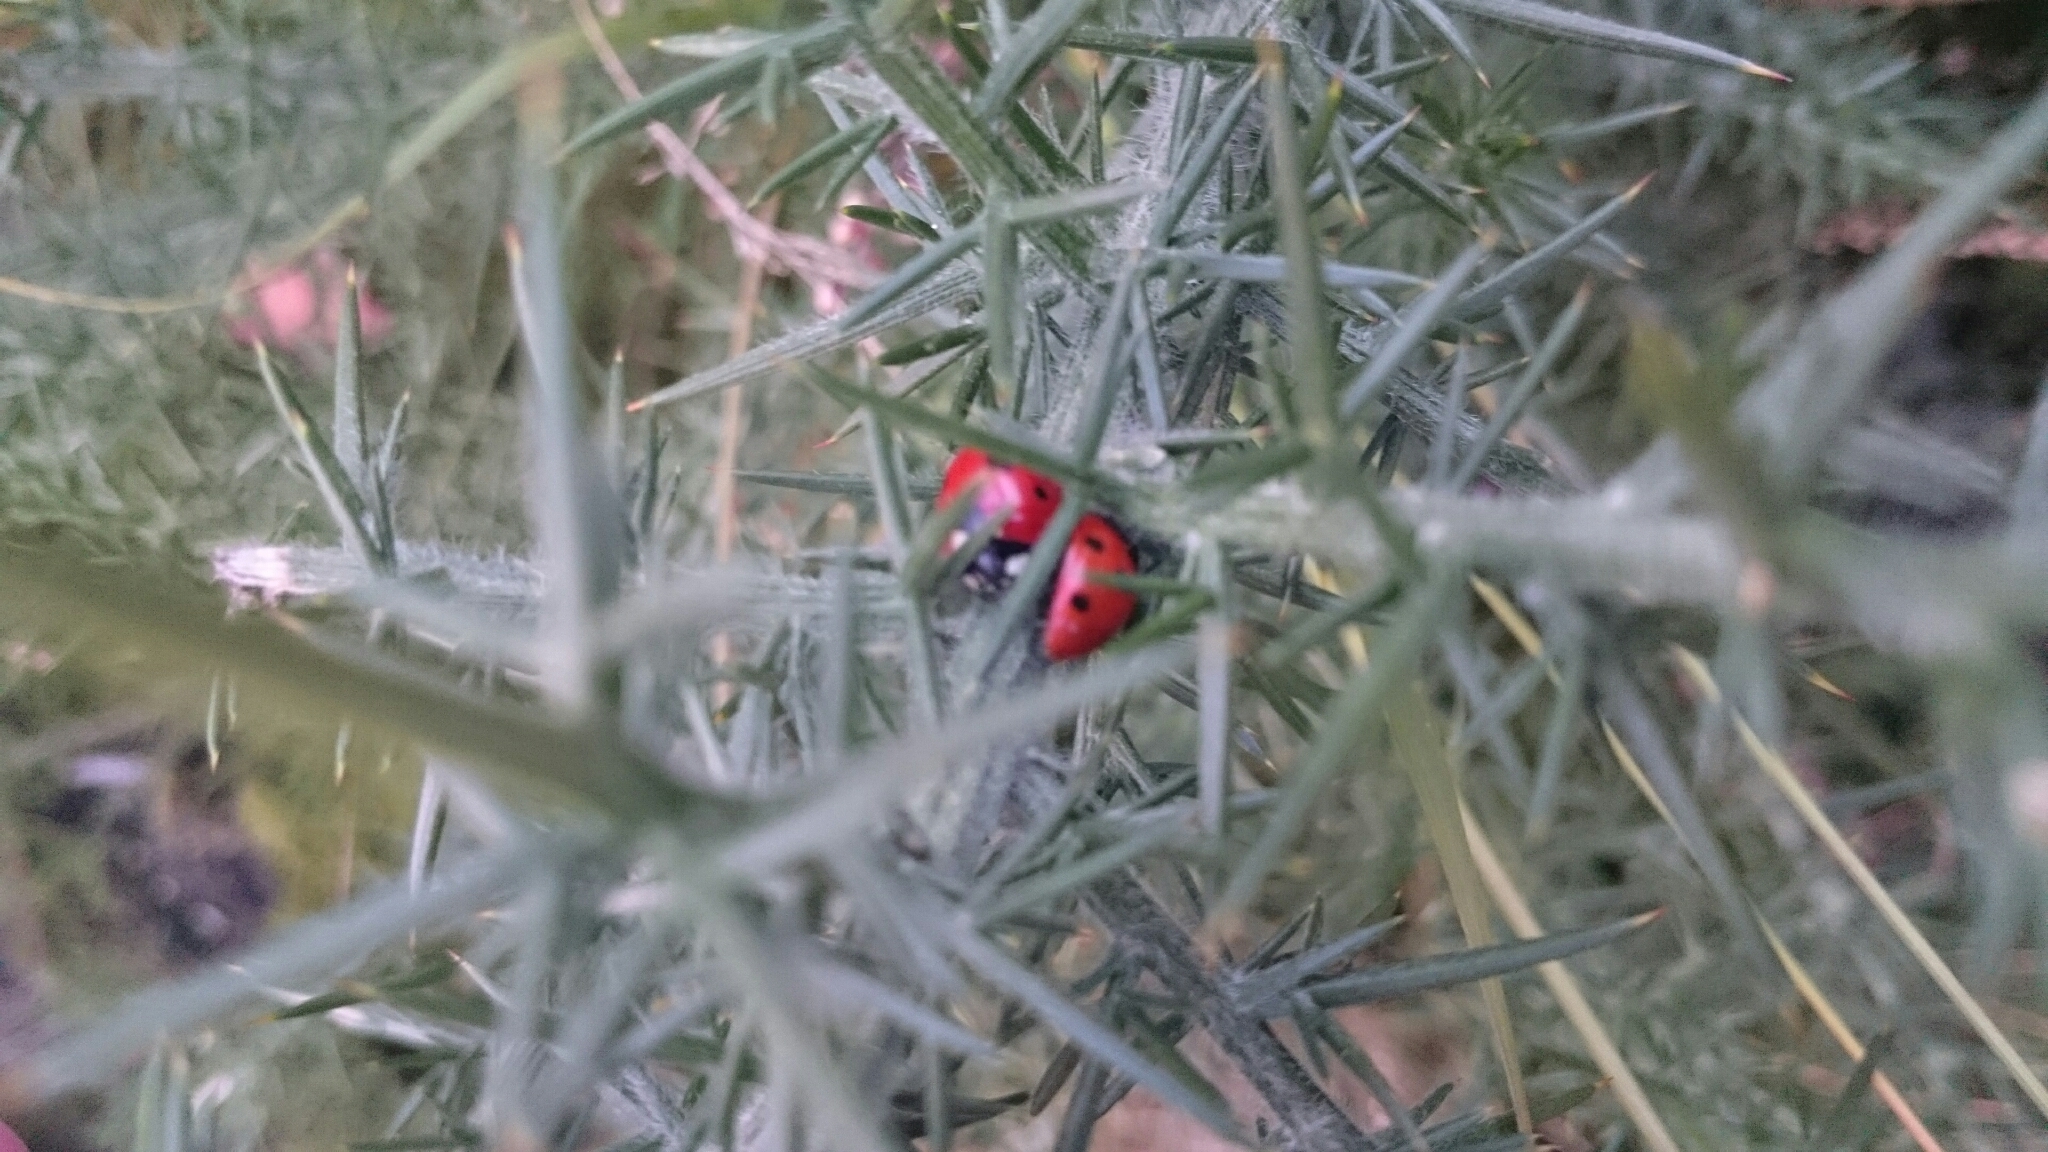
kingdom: Animalia
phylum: Arthropoda
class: Insecta
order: Coleoptera
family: Coccinellidae
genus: Coccinella
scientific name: Coccinella septempunctata
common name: Sevenspotted lady beetle
